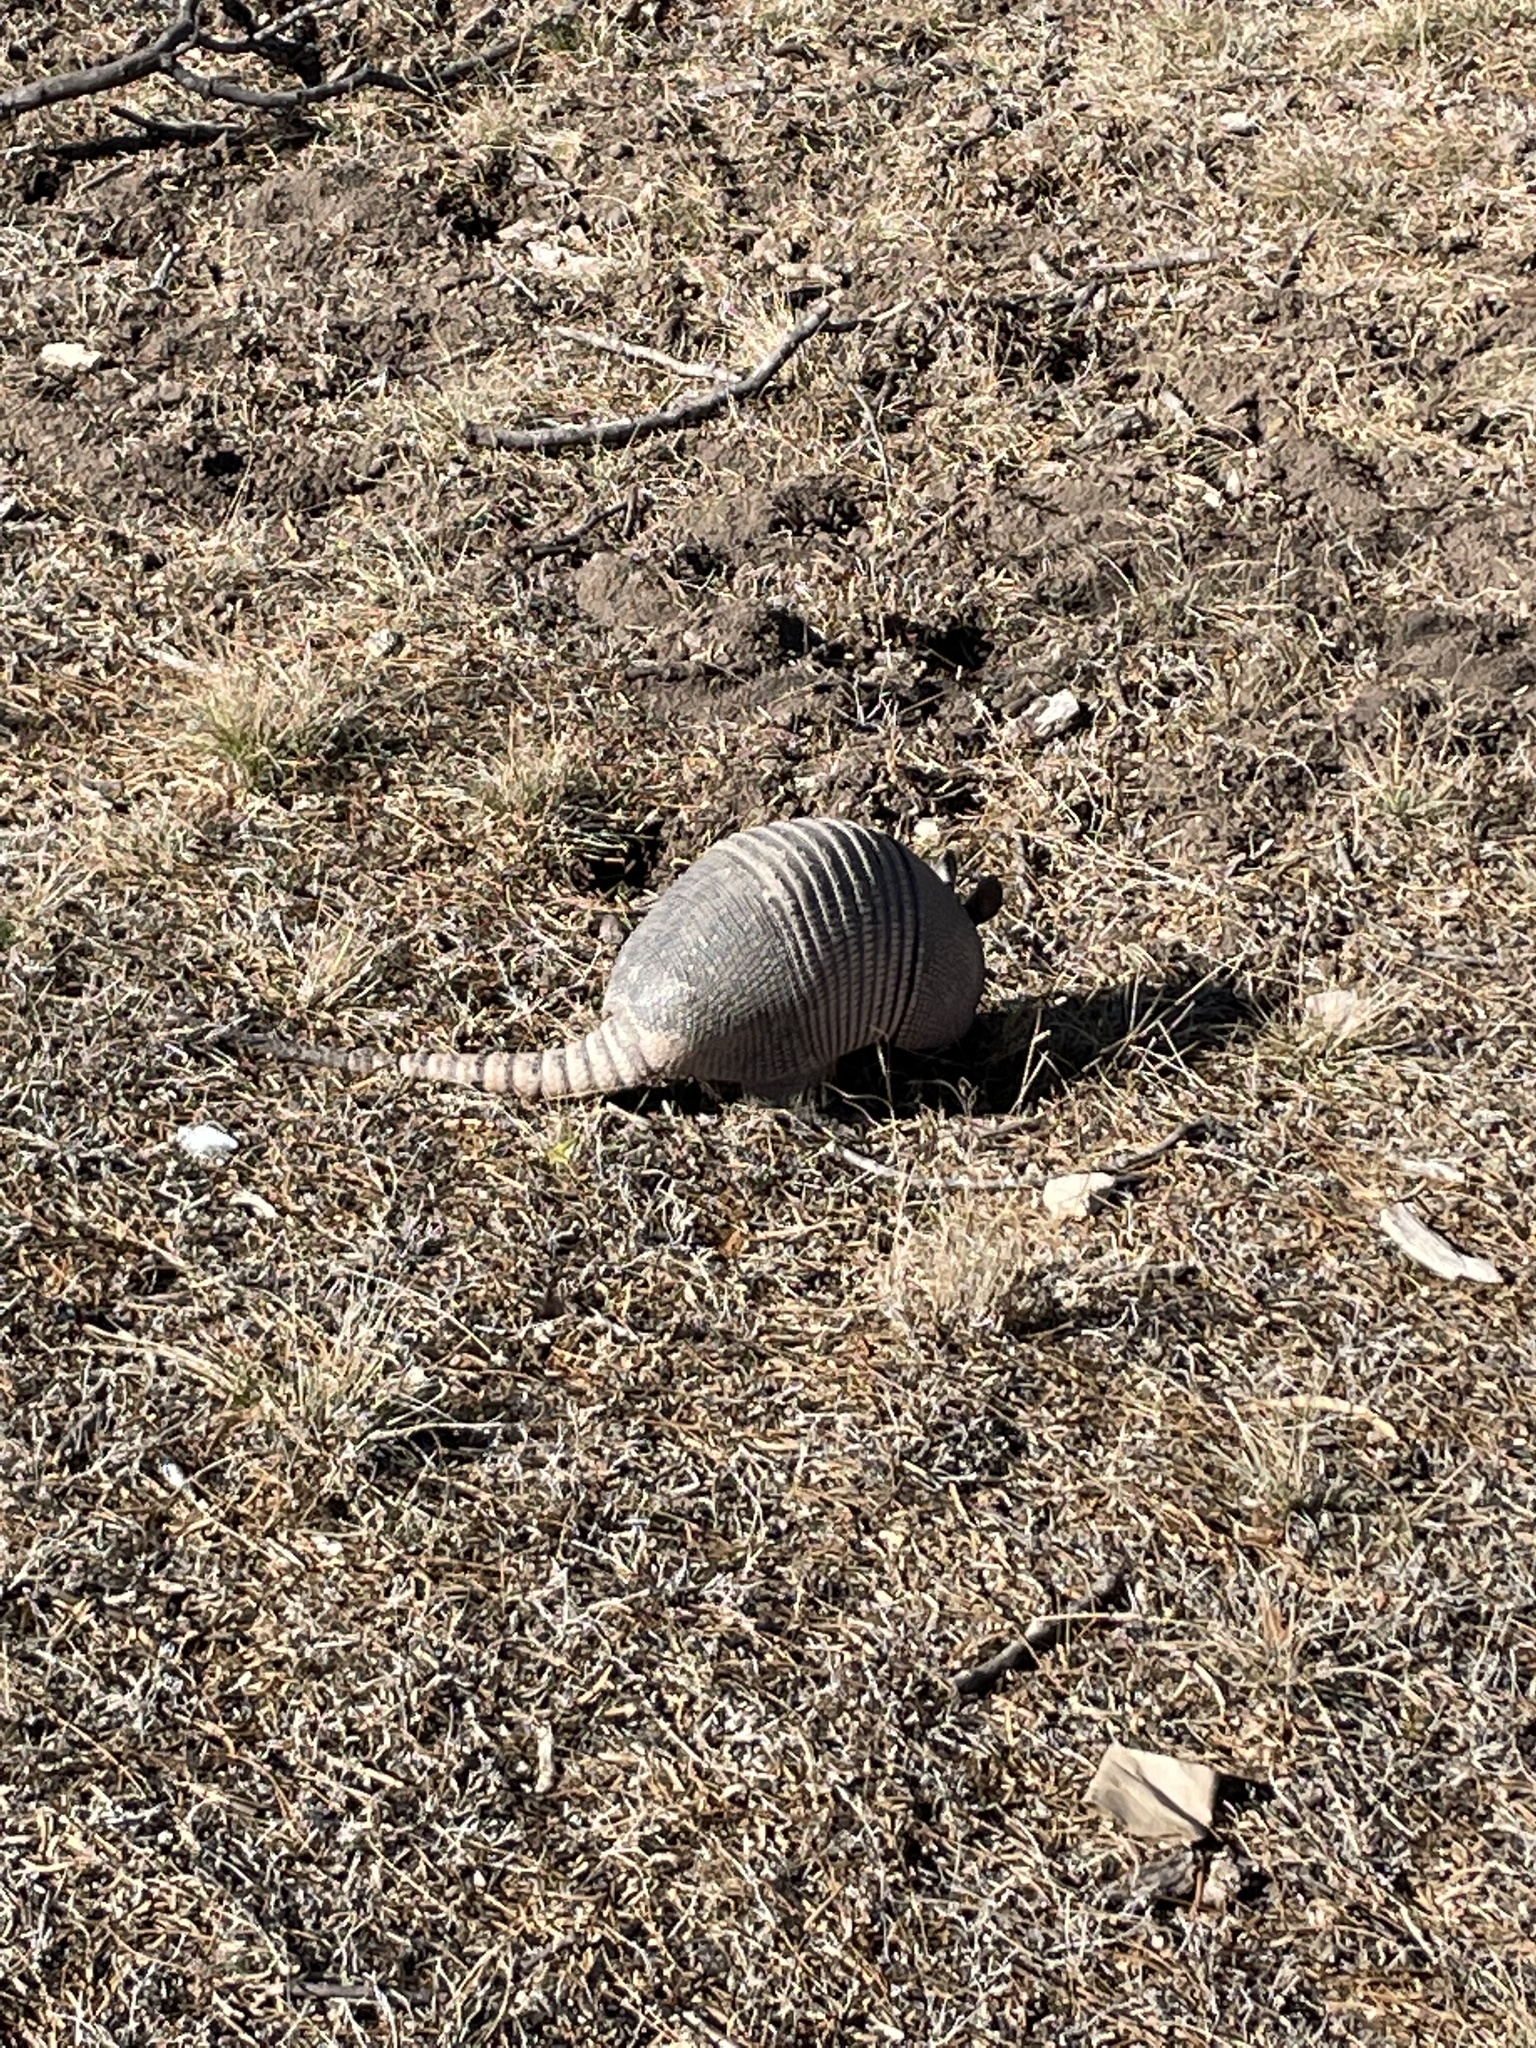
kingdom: Animalia
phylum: Chordata
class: Mammalia
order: Cingulata
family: Dasypodidae
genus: Dasypus
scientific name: Dasypus novemcinctus
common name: Nine-banded armadillo
